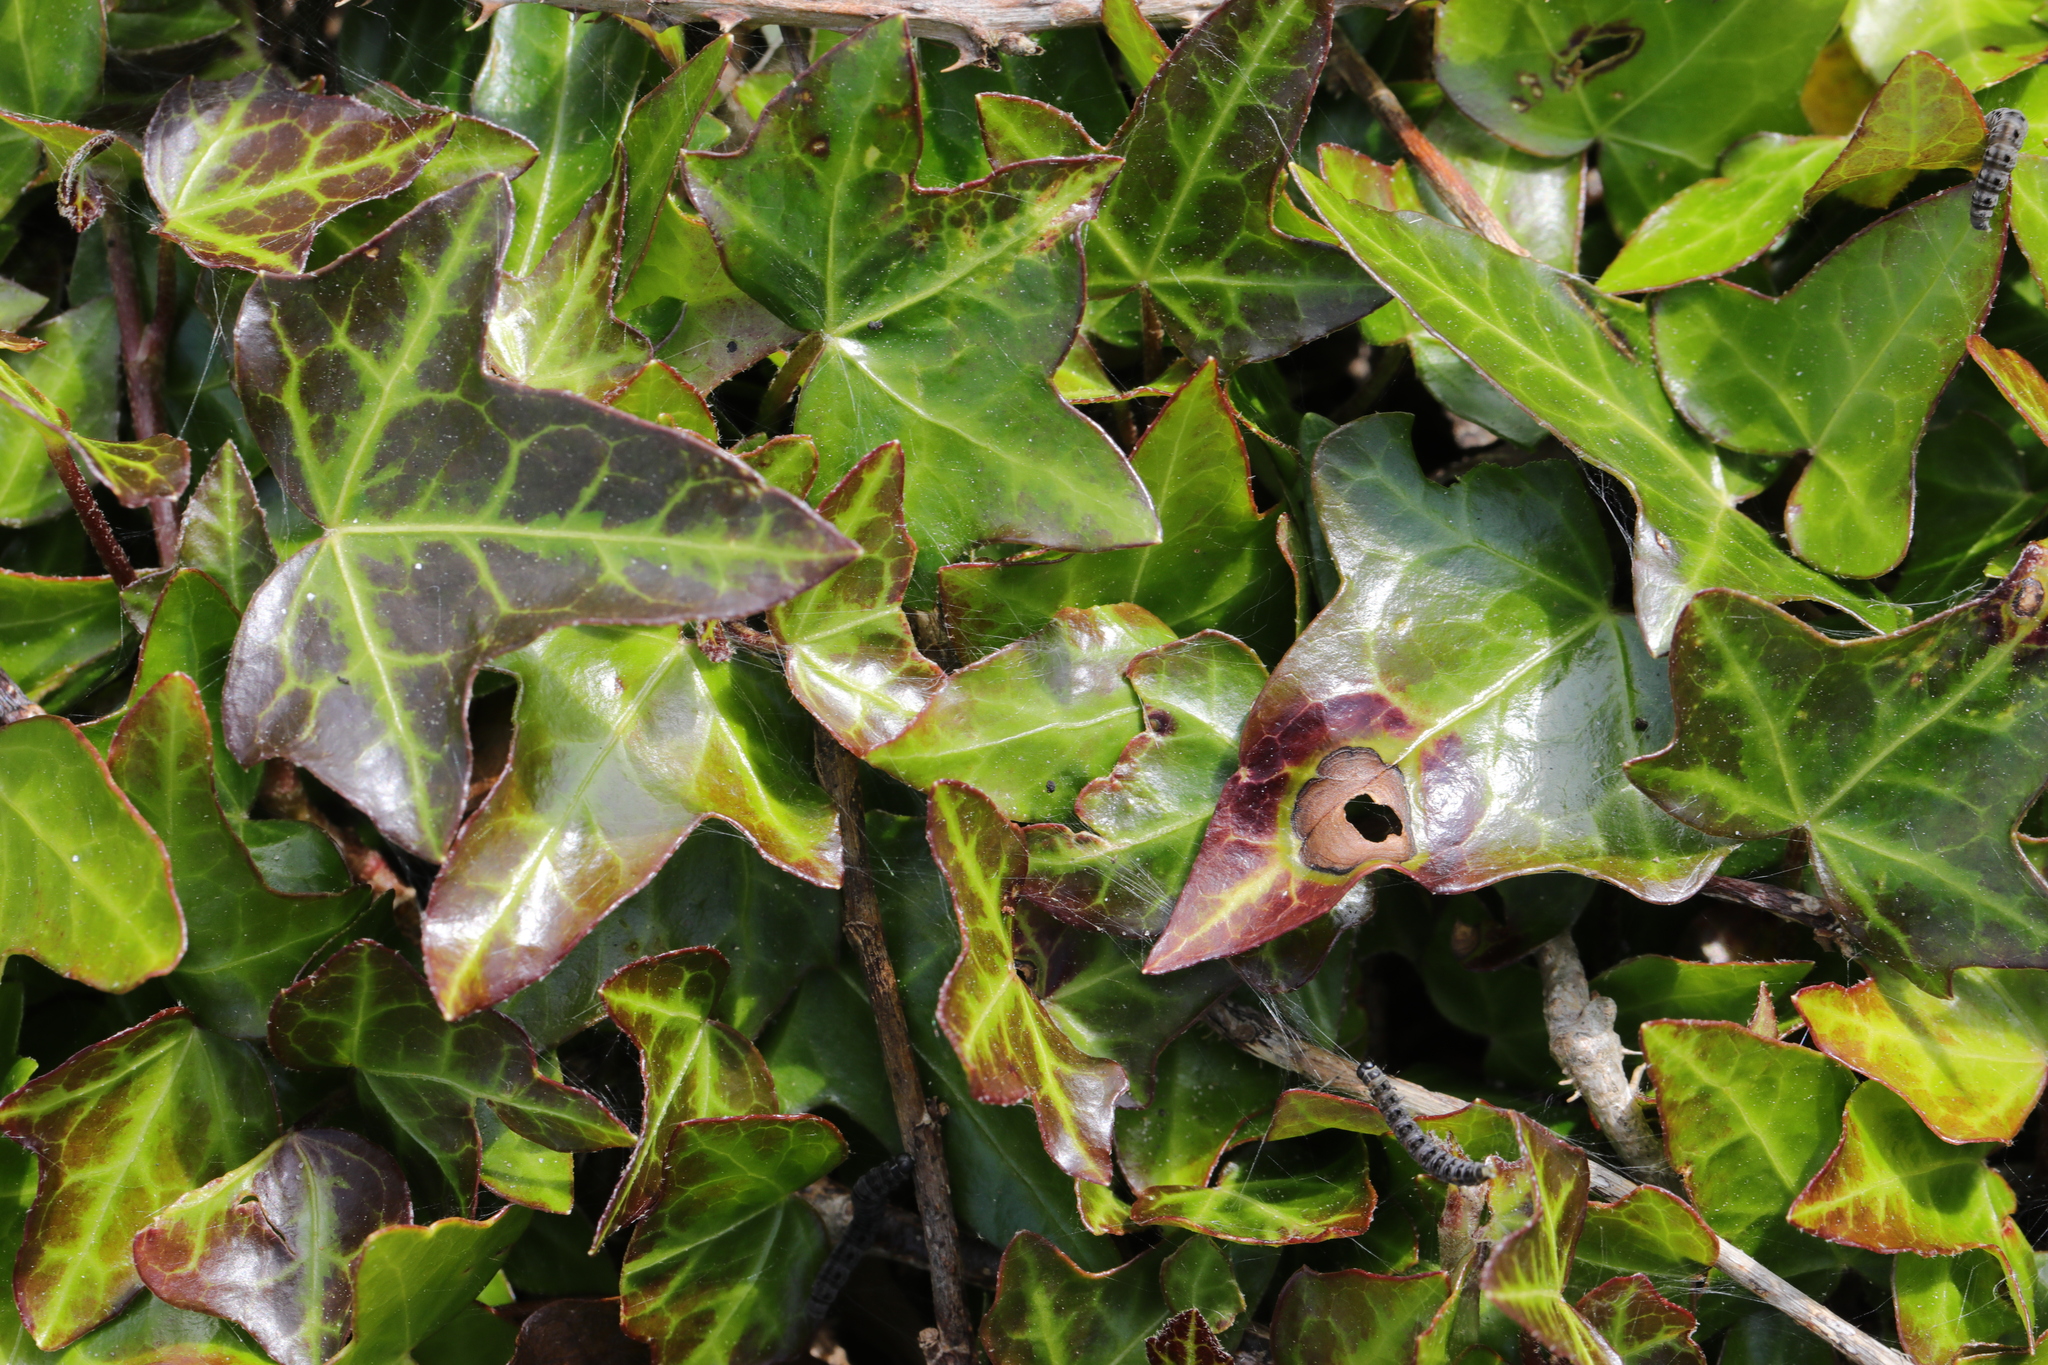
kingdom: Plantae
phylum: Tracheophyta
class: Magnoliopsida
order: Apiales
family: Araliaceae
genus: Hedera
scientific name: Hedera helix
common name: Ivy
